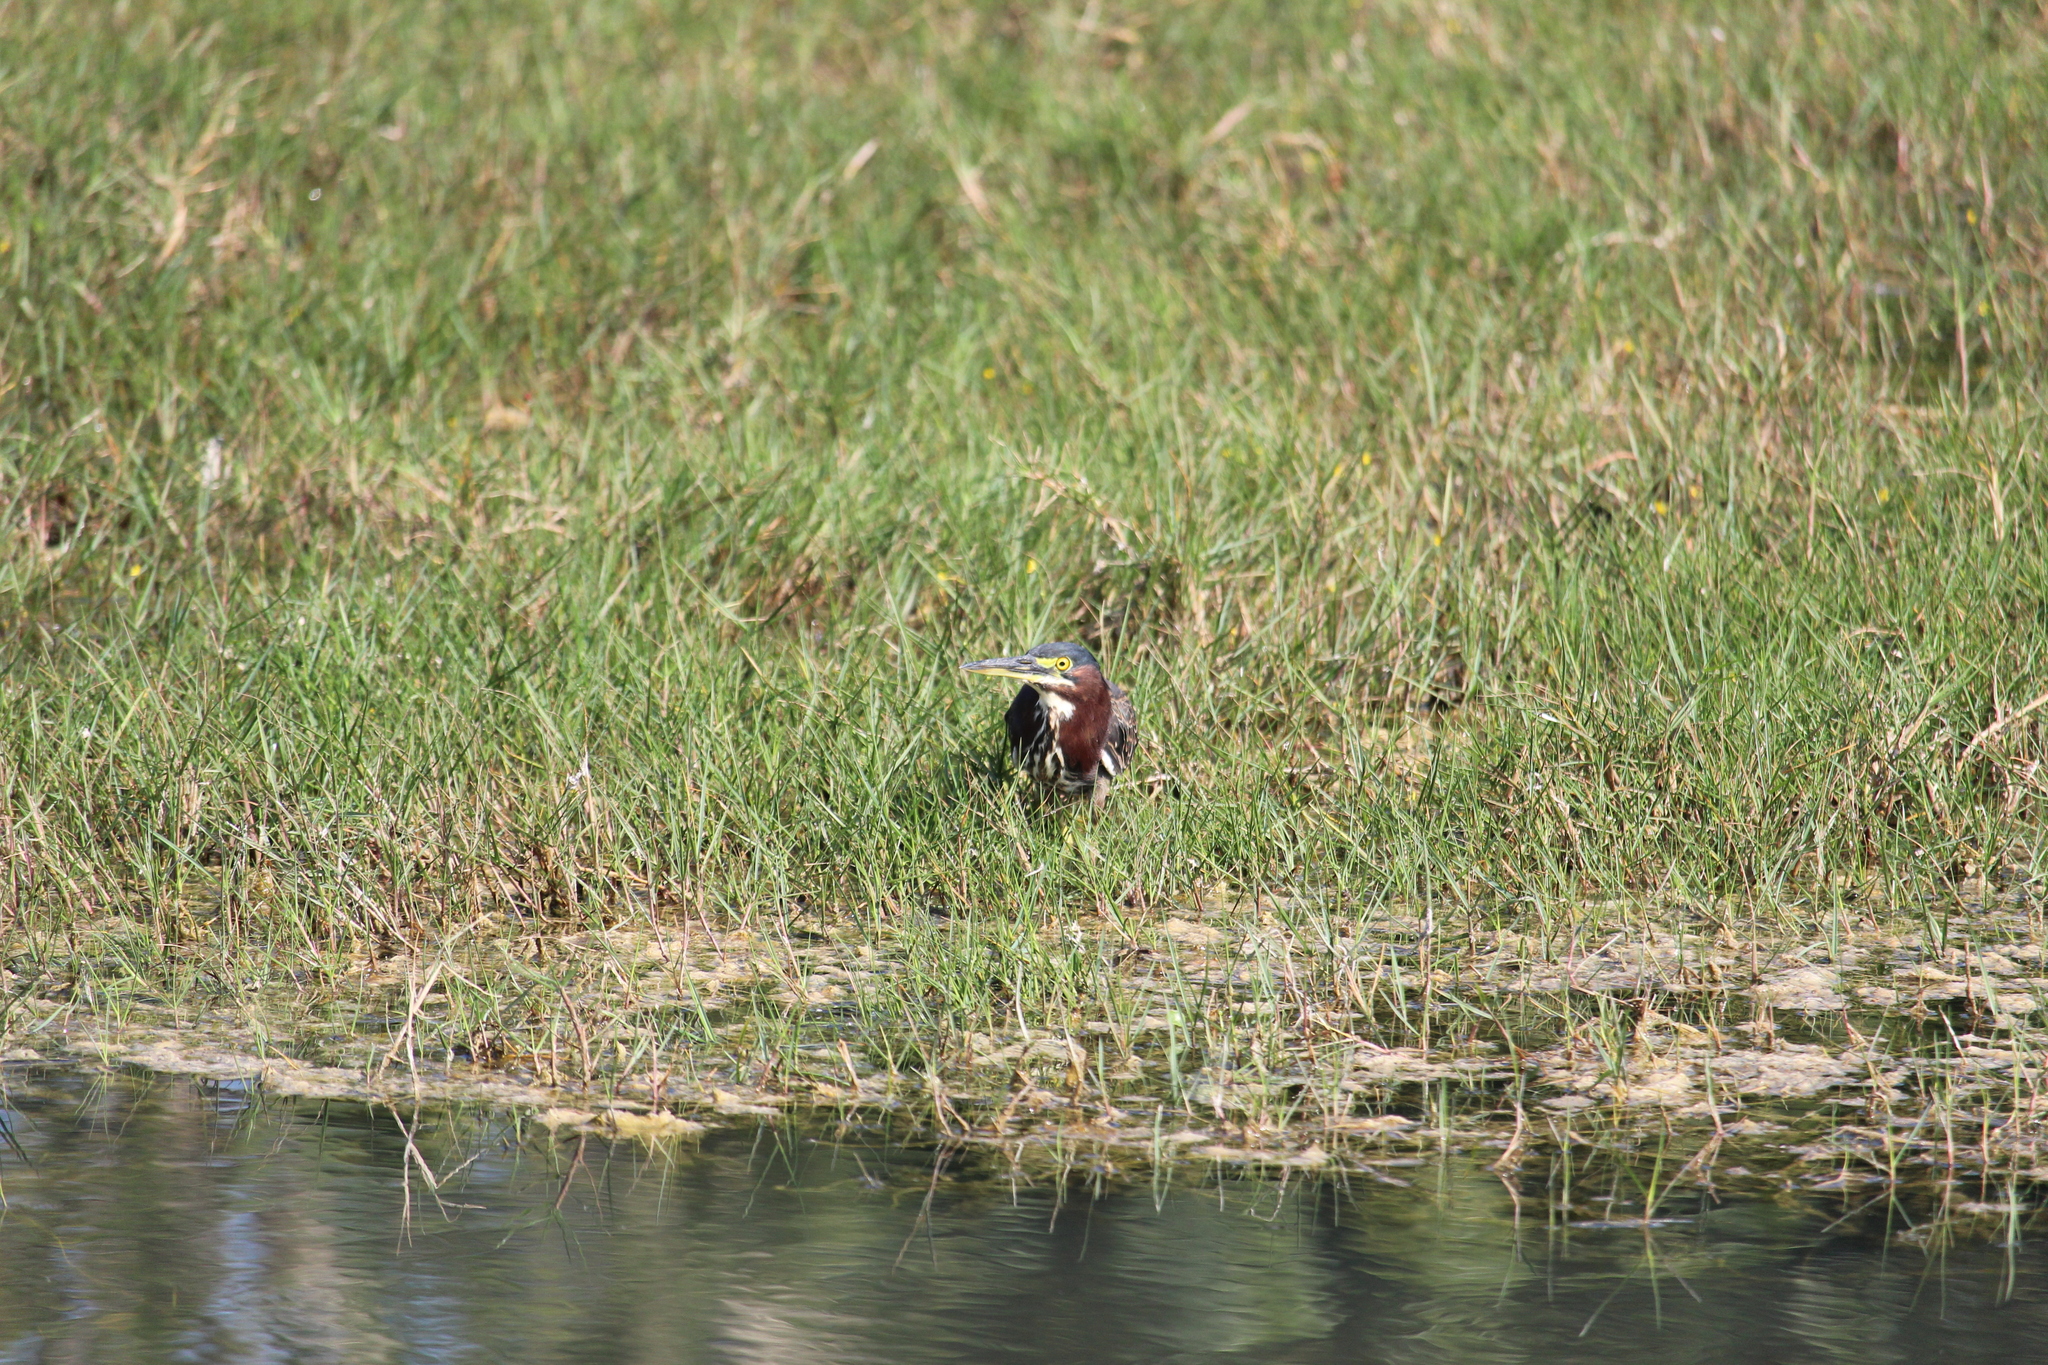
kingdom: Animalia
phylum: Chordata
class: Aves
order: Pelecaniformes
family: Ardeidae
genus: Butorides
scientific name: Butorides virescens
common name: Green heron
